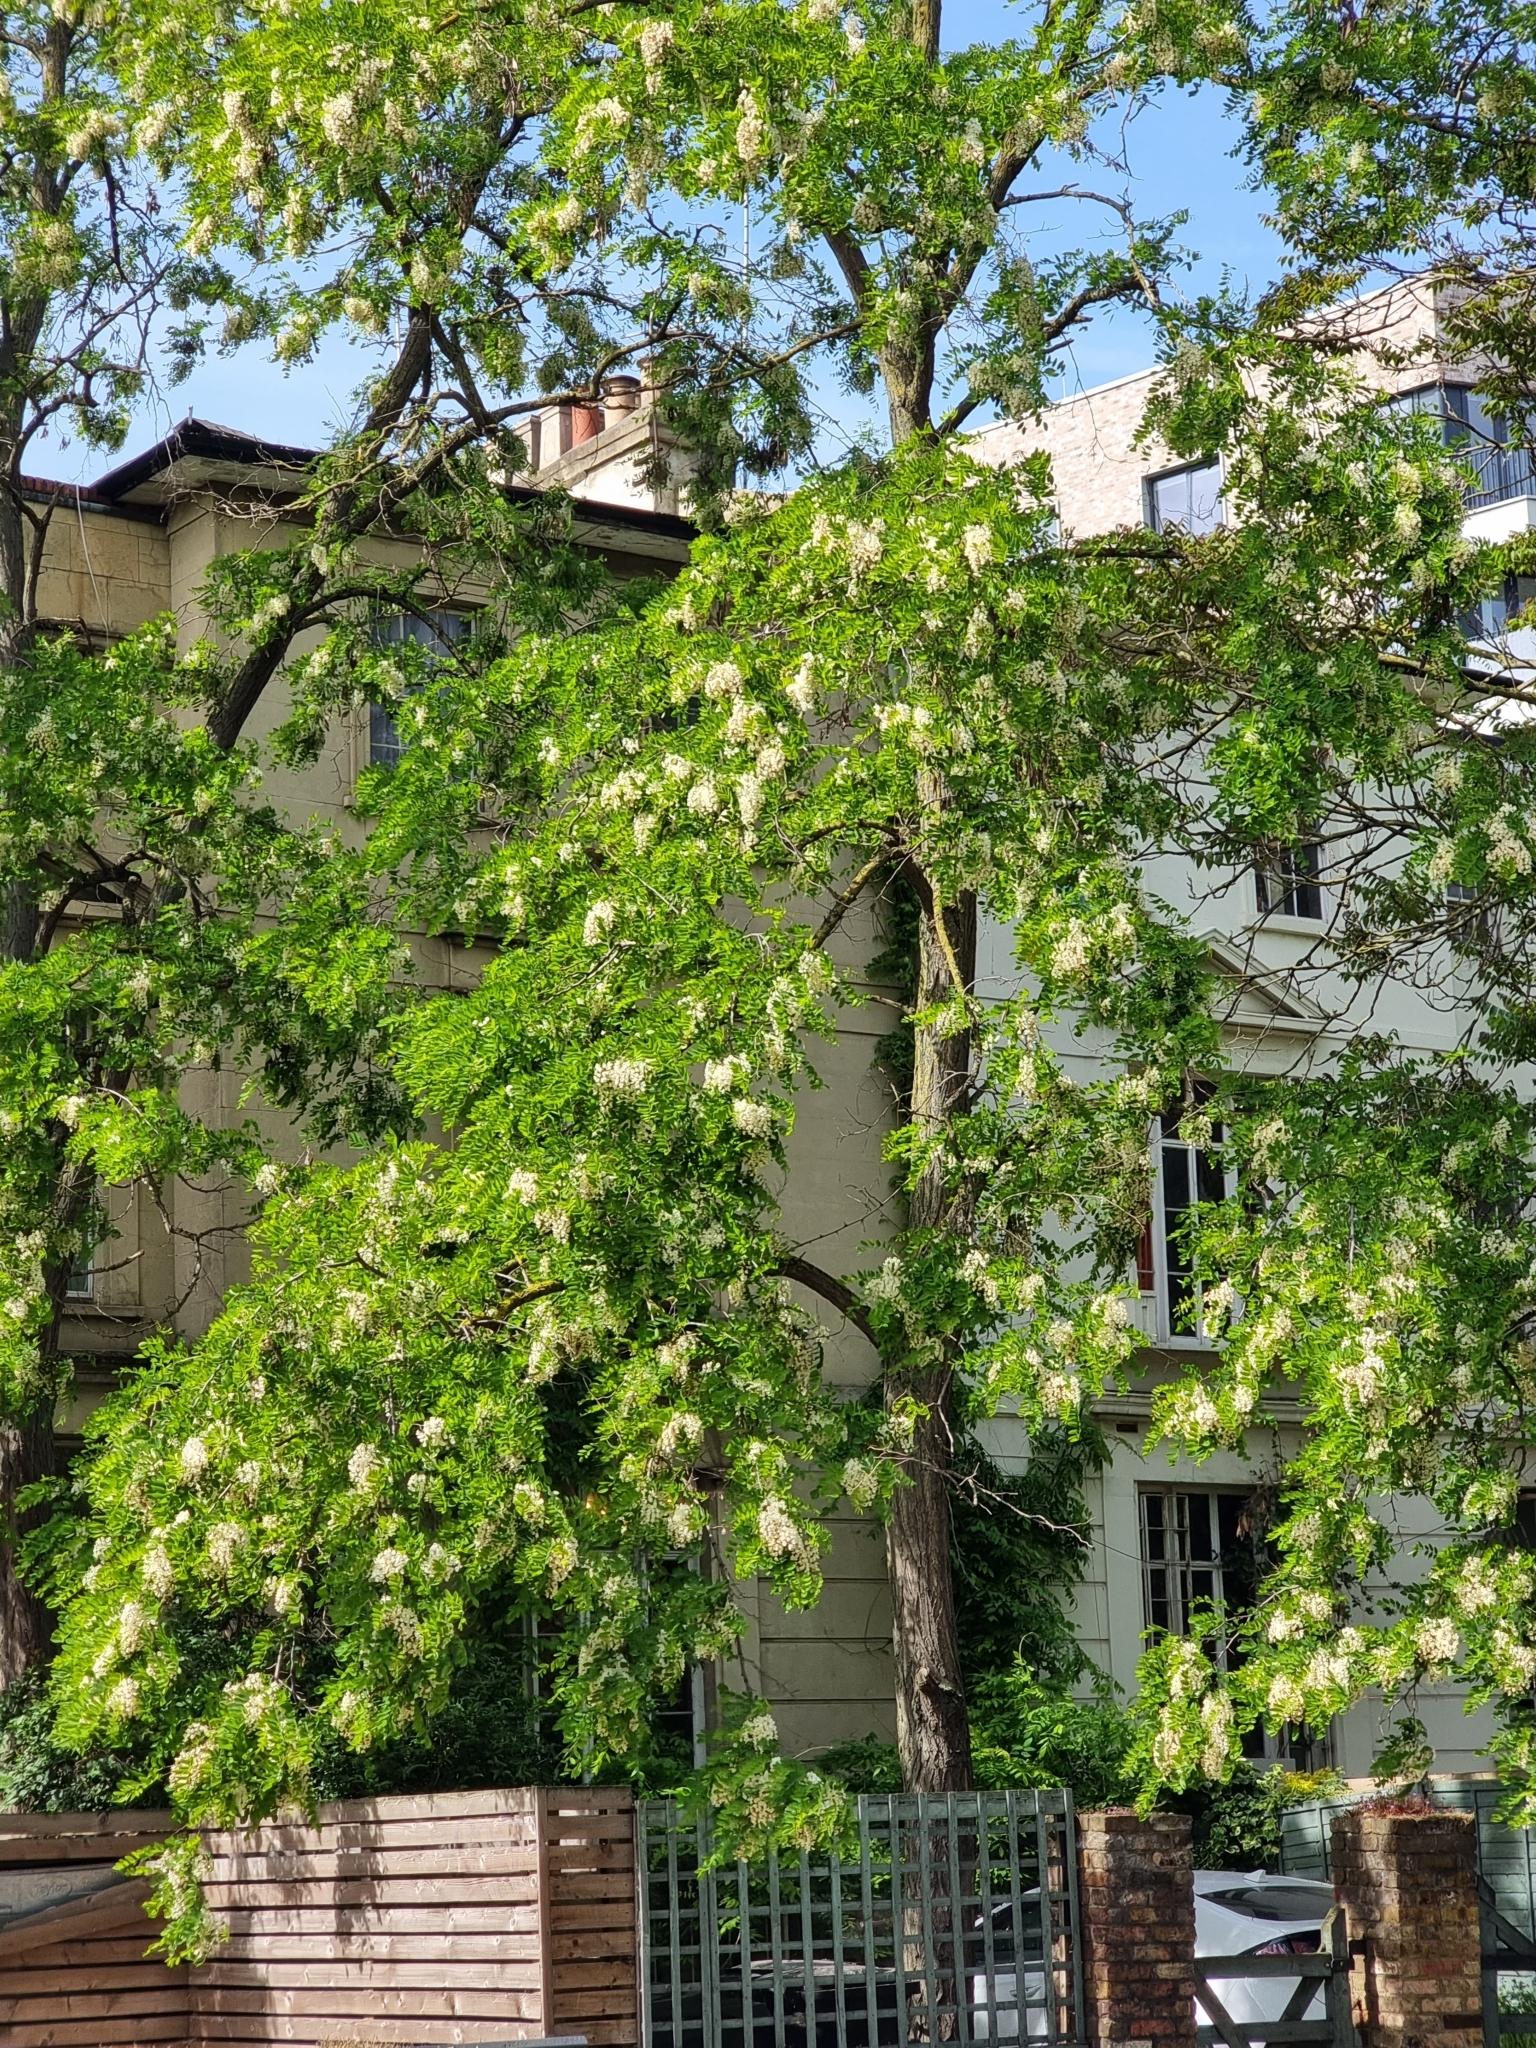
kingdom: Plantae
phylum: Tracheophyta
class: Magnoliopsida
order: Fabales
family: Fabaceae
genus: Robinia
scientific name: Robinia pseudoacacia
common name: Black locust
